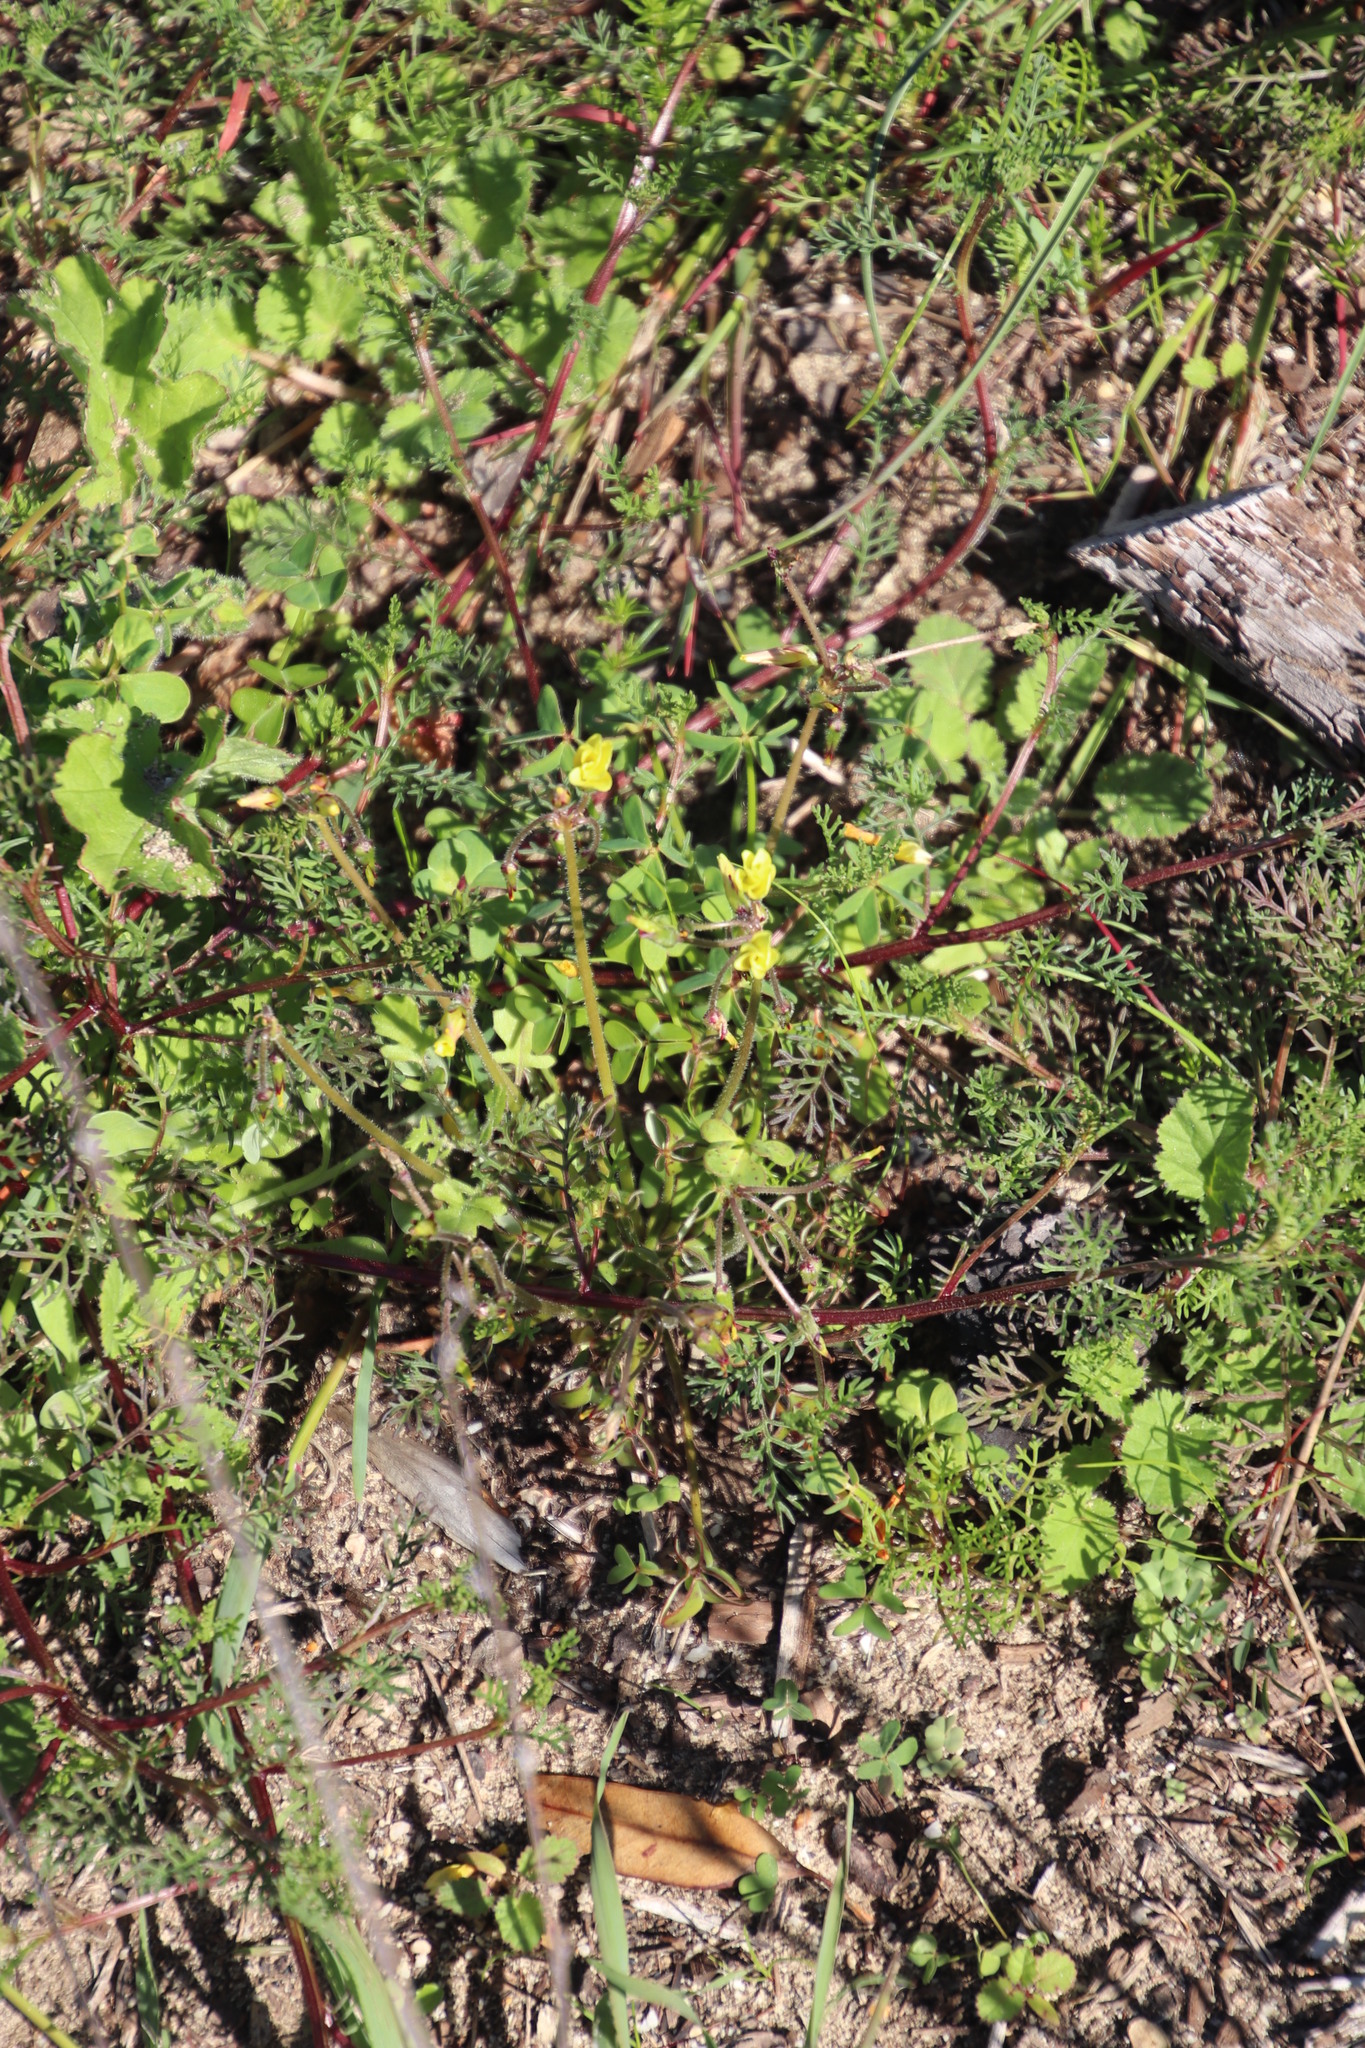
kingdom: Plantae
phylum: Tracheophyta
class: Magnoliopsida
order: Oxalidales
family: Oxalidaceae
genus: Oxalis
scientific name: Oxalis pes-caprae
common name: Bermuda-buttercup
